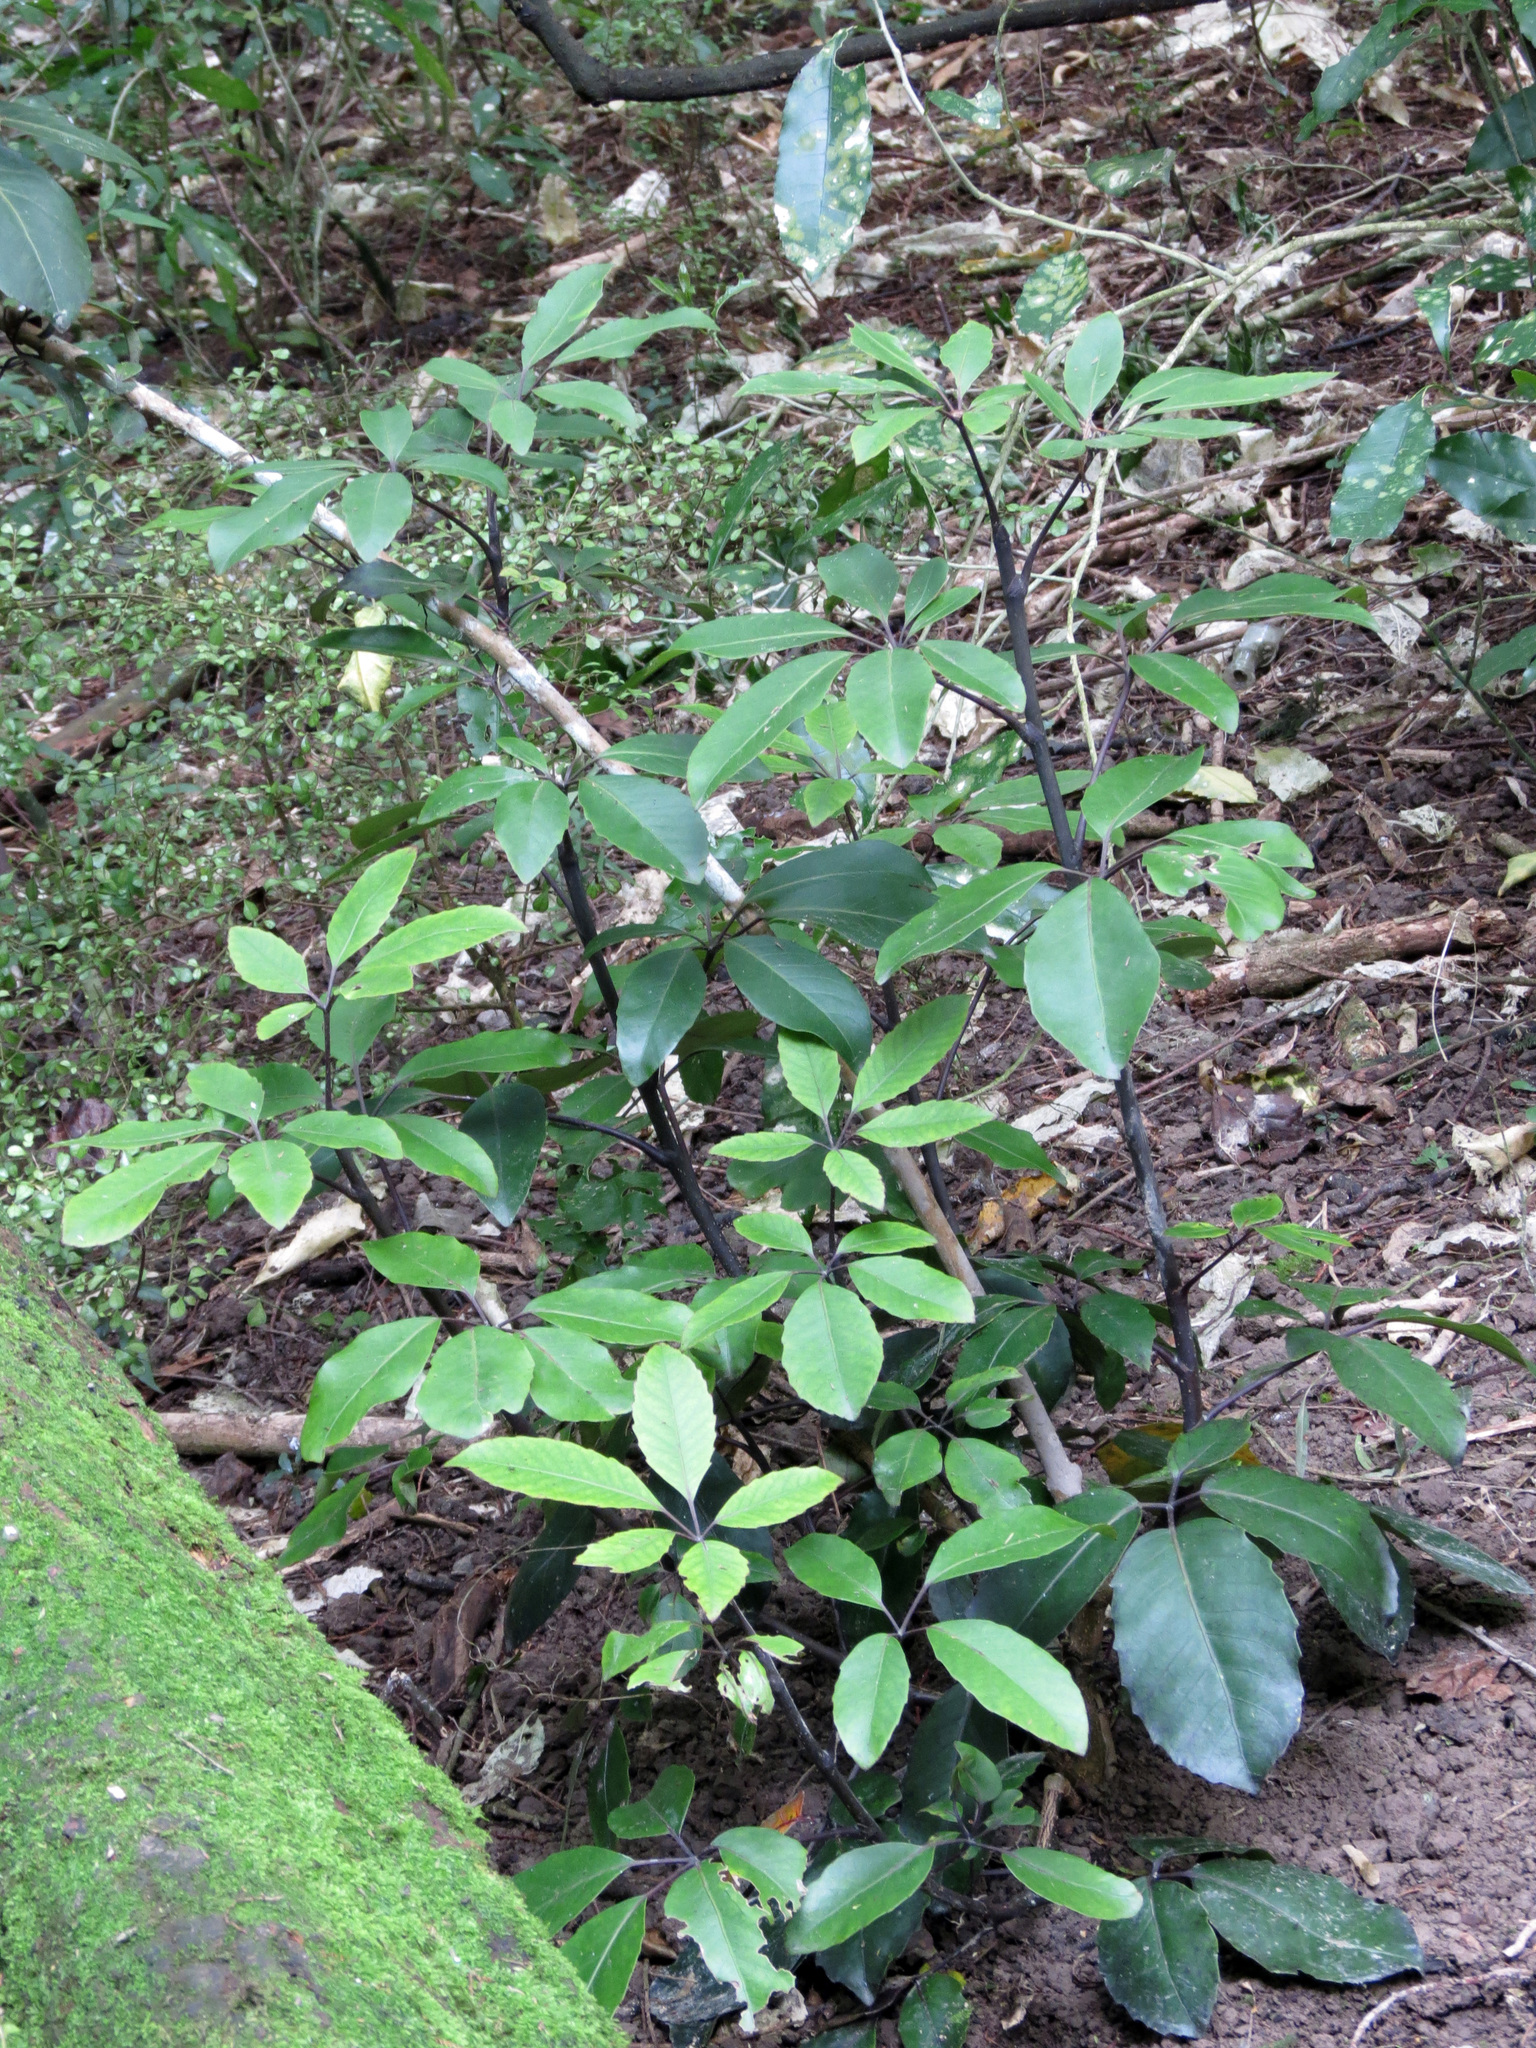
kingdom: Plantae
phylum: Tracheophyta
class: Magnoliopsida
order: Apiales
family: Araliaceae
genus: Neopanax
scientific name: Neopanax arboreus
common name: Five-fingers
